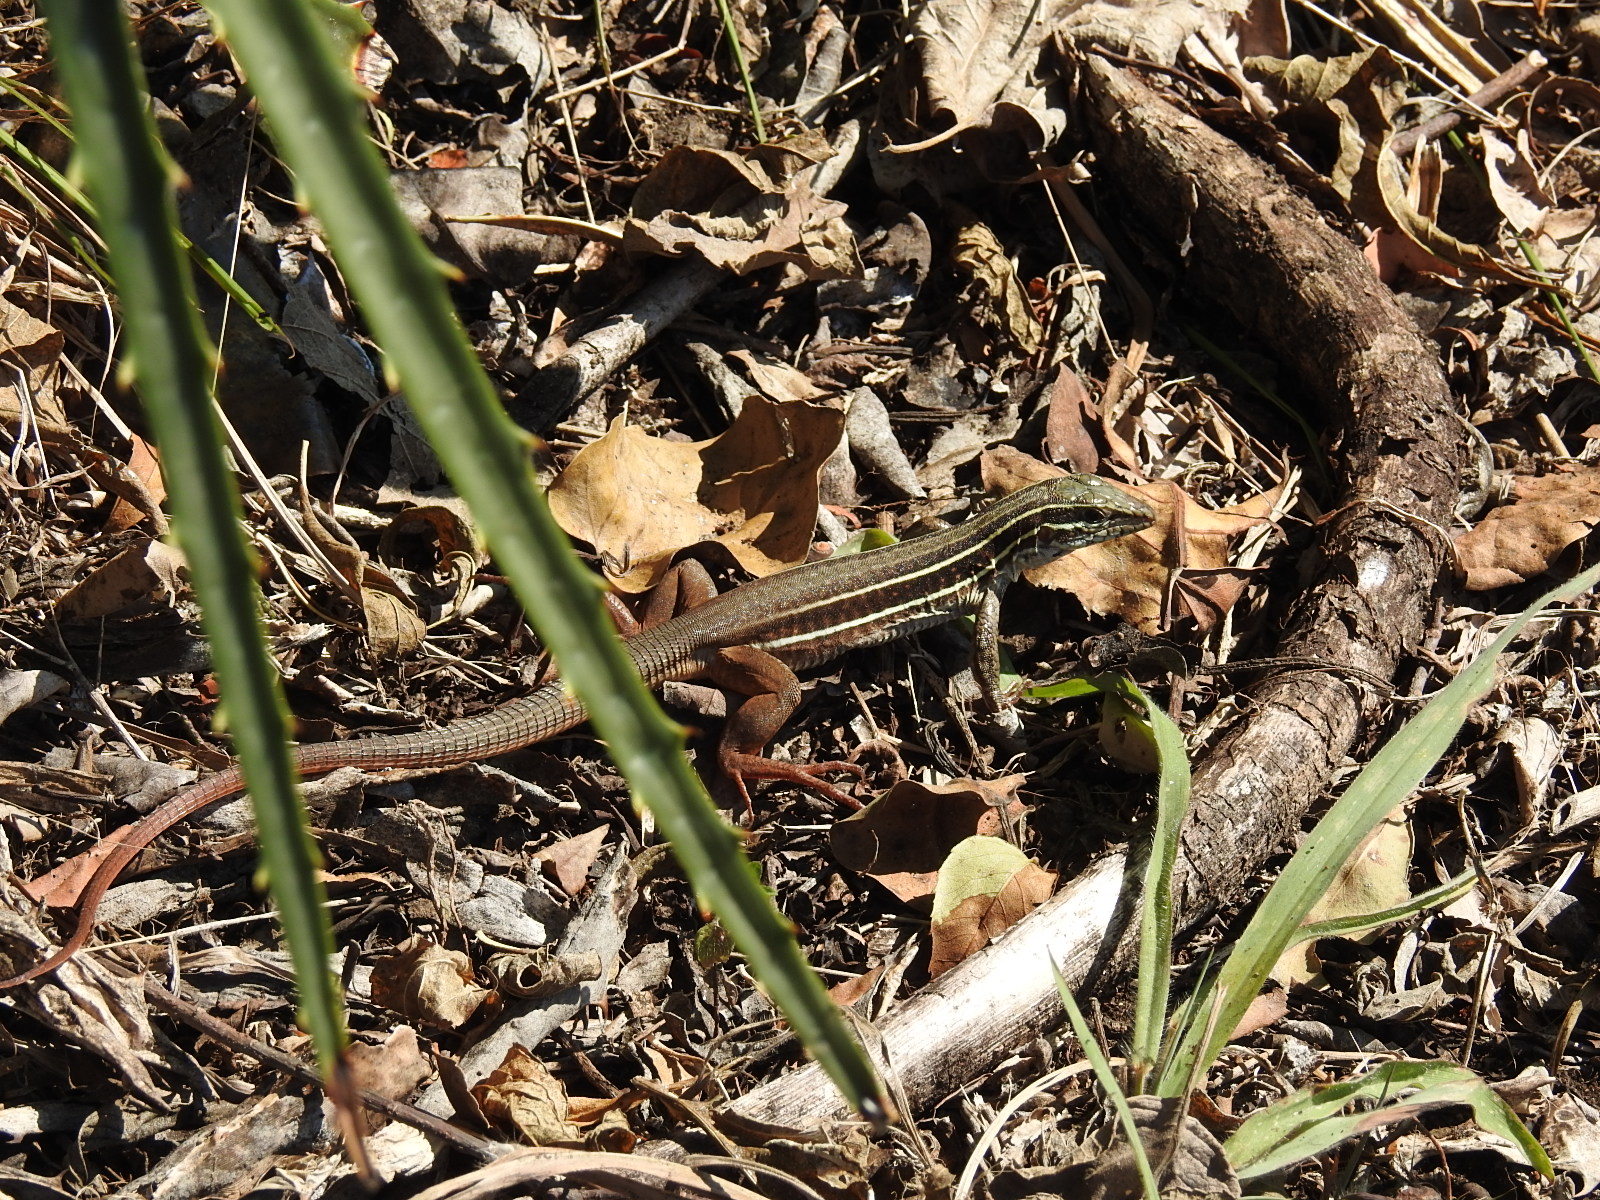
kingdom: Animalia
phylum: Chordata
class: Squamata
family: Teiidae
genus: Aspidoscelis
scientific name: Aspidoscelis motaguae
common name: Giant whiptail
